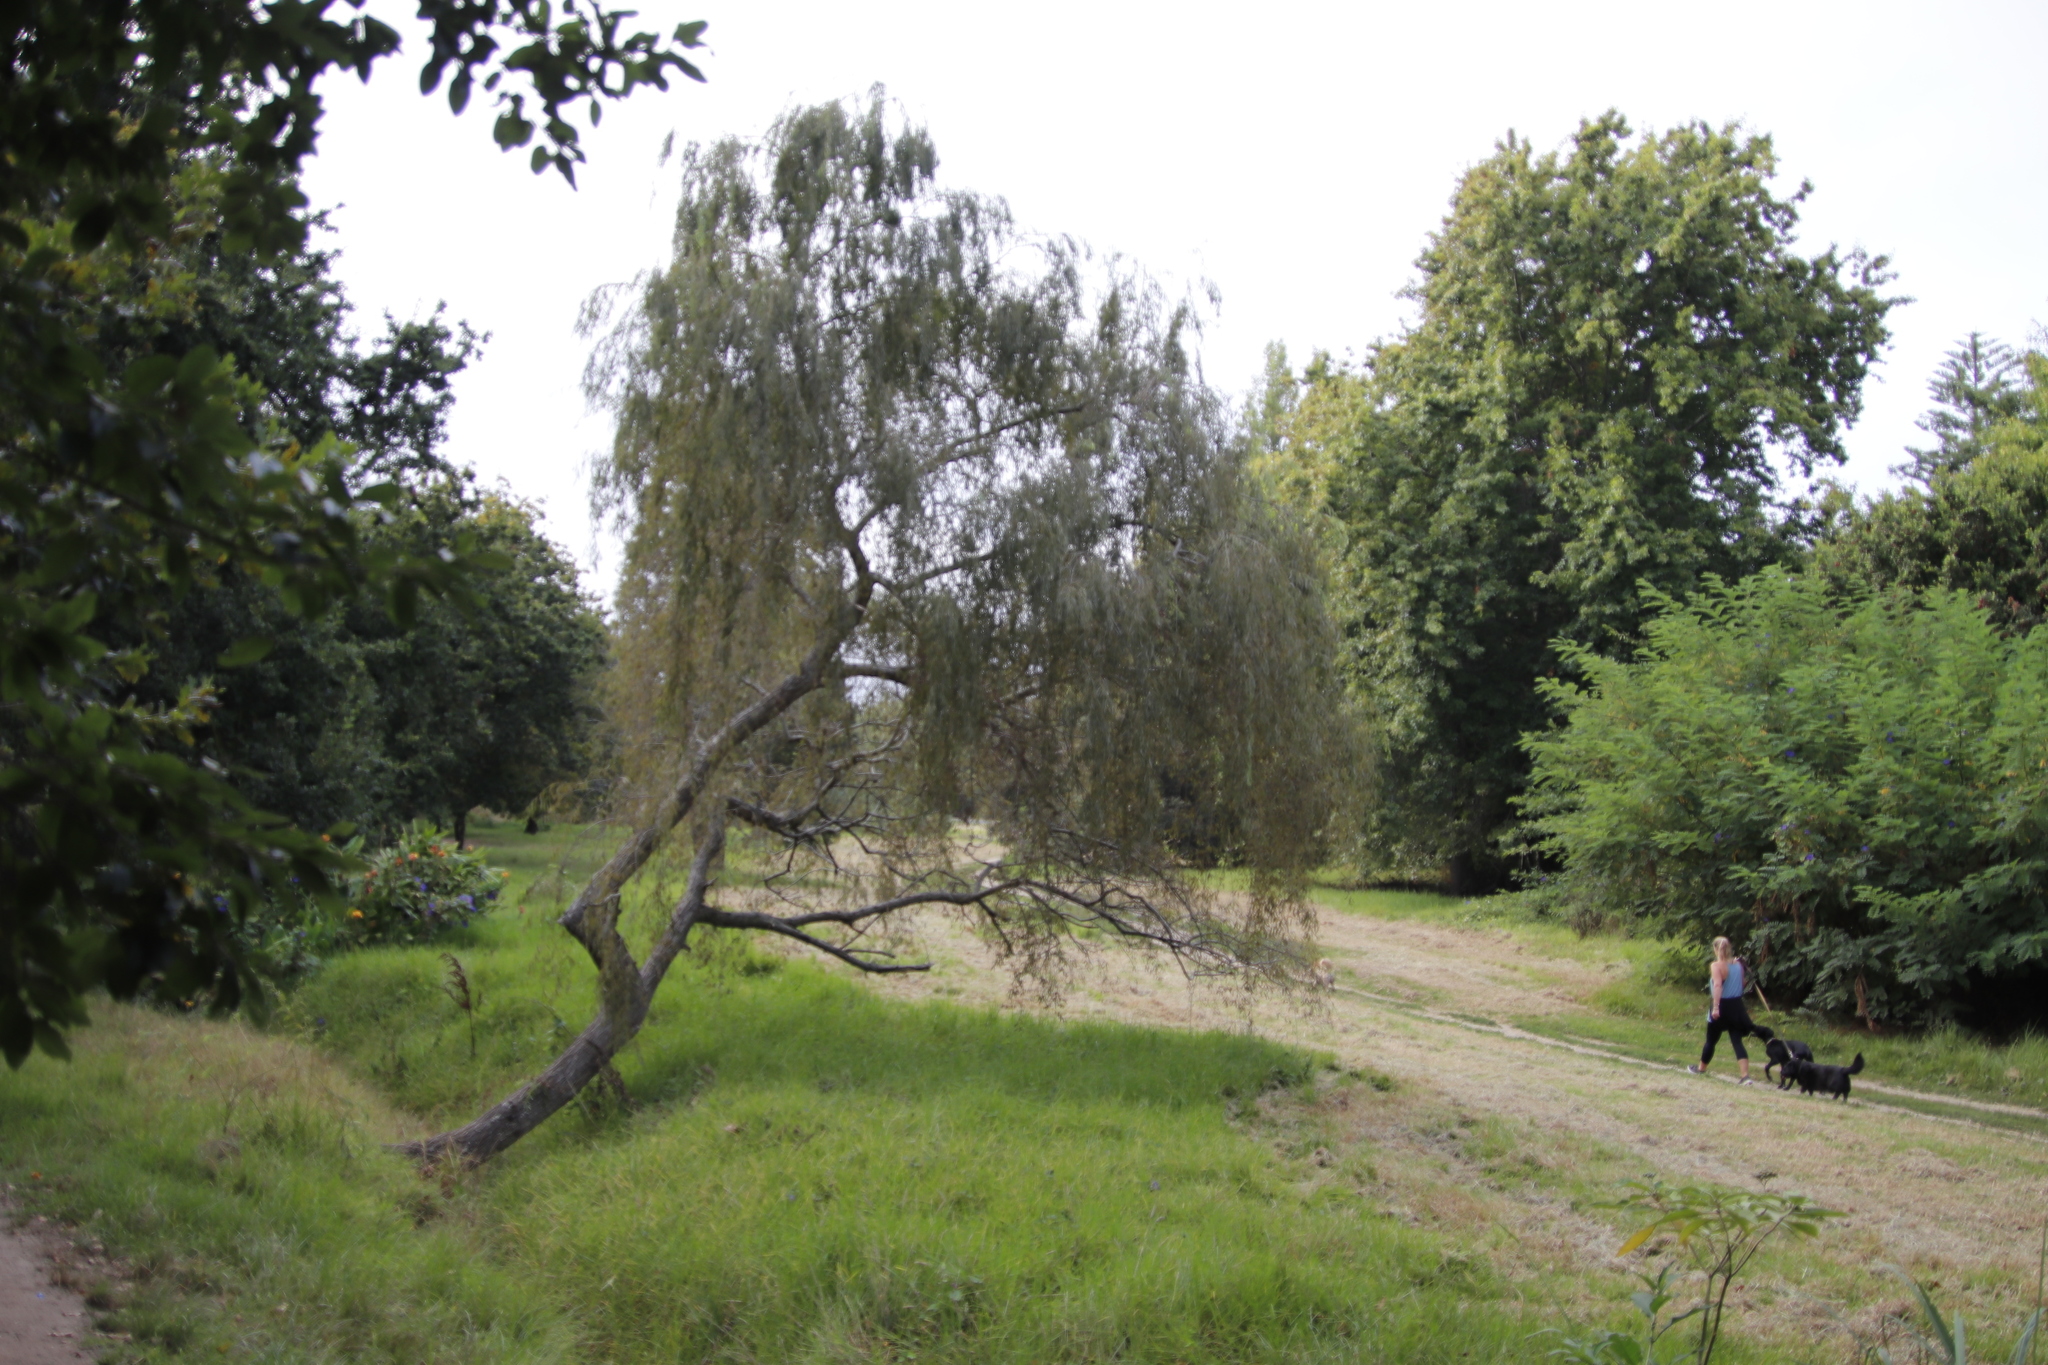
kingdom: Plantae
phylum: Tracheophyta
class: Magnoliopsida
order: Malpighiales
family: Salicaceae
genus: Salix
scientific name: Salix babylonica
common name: Weeping willow
